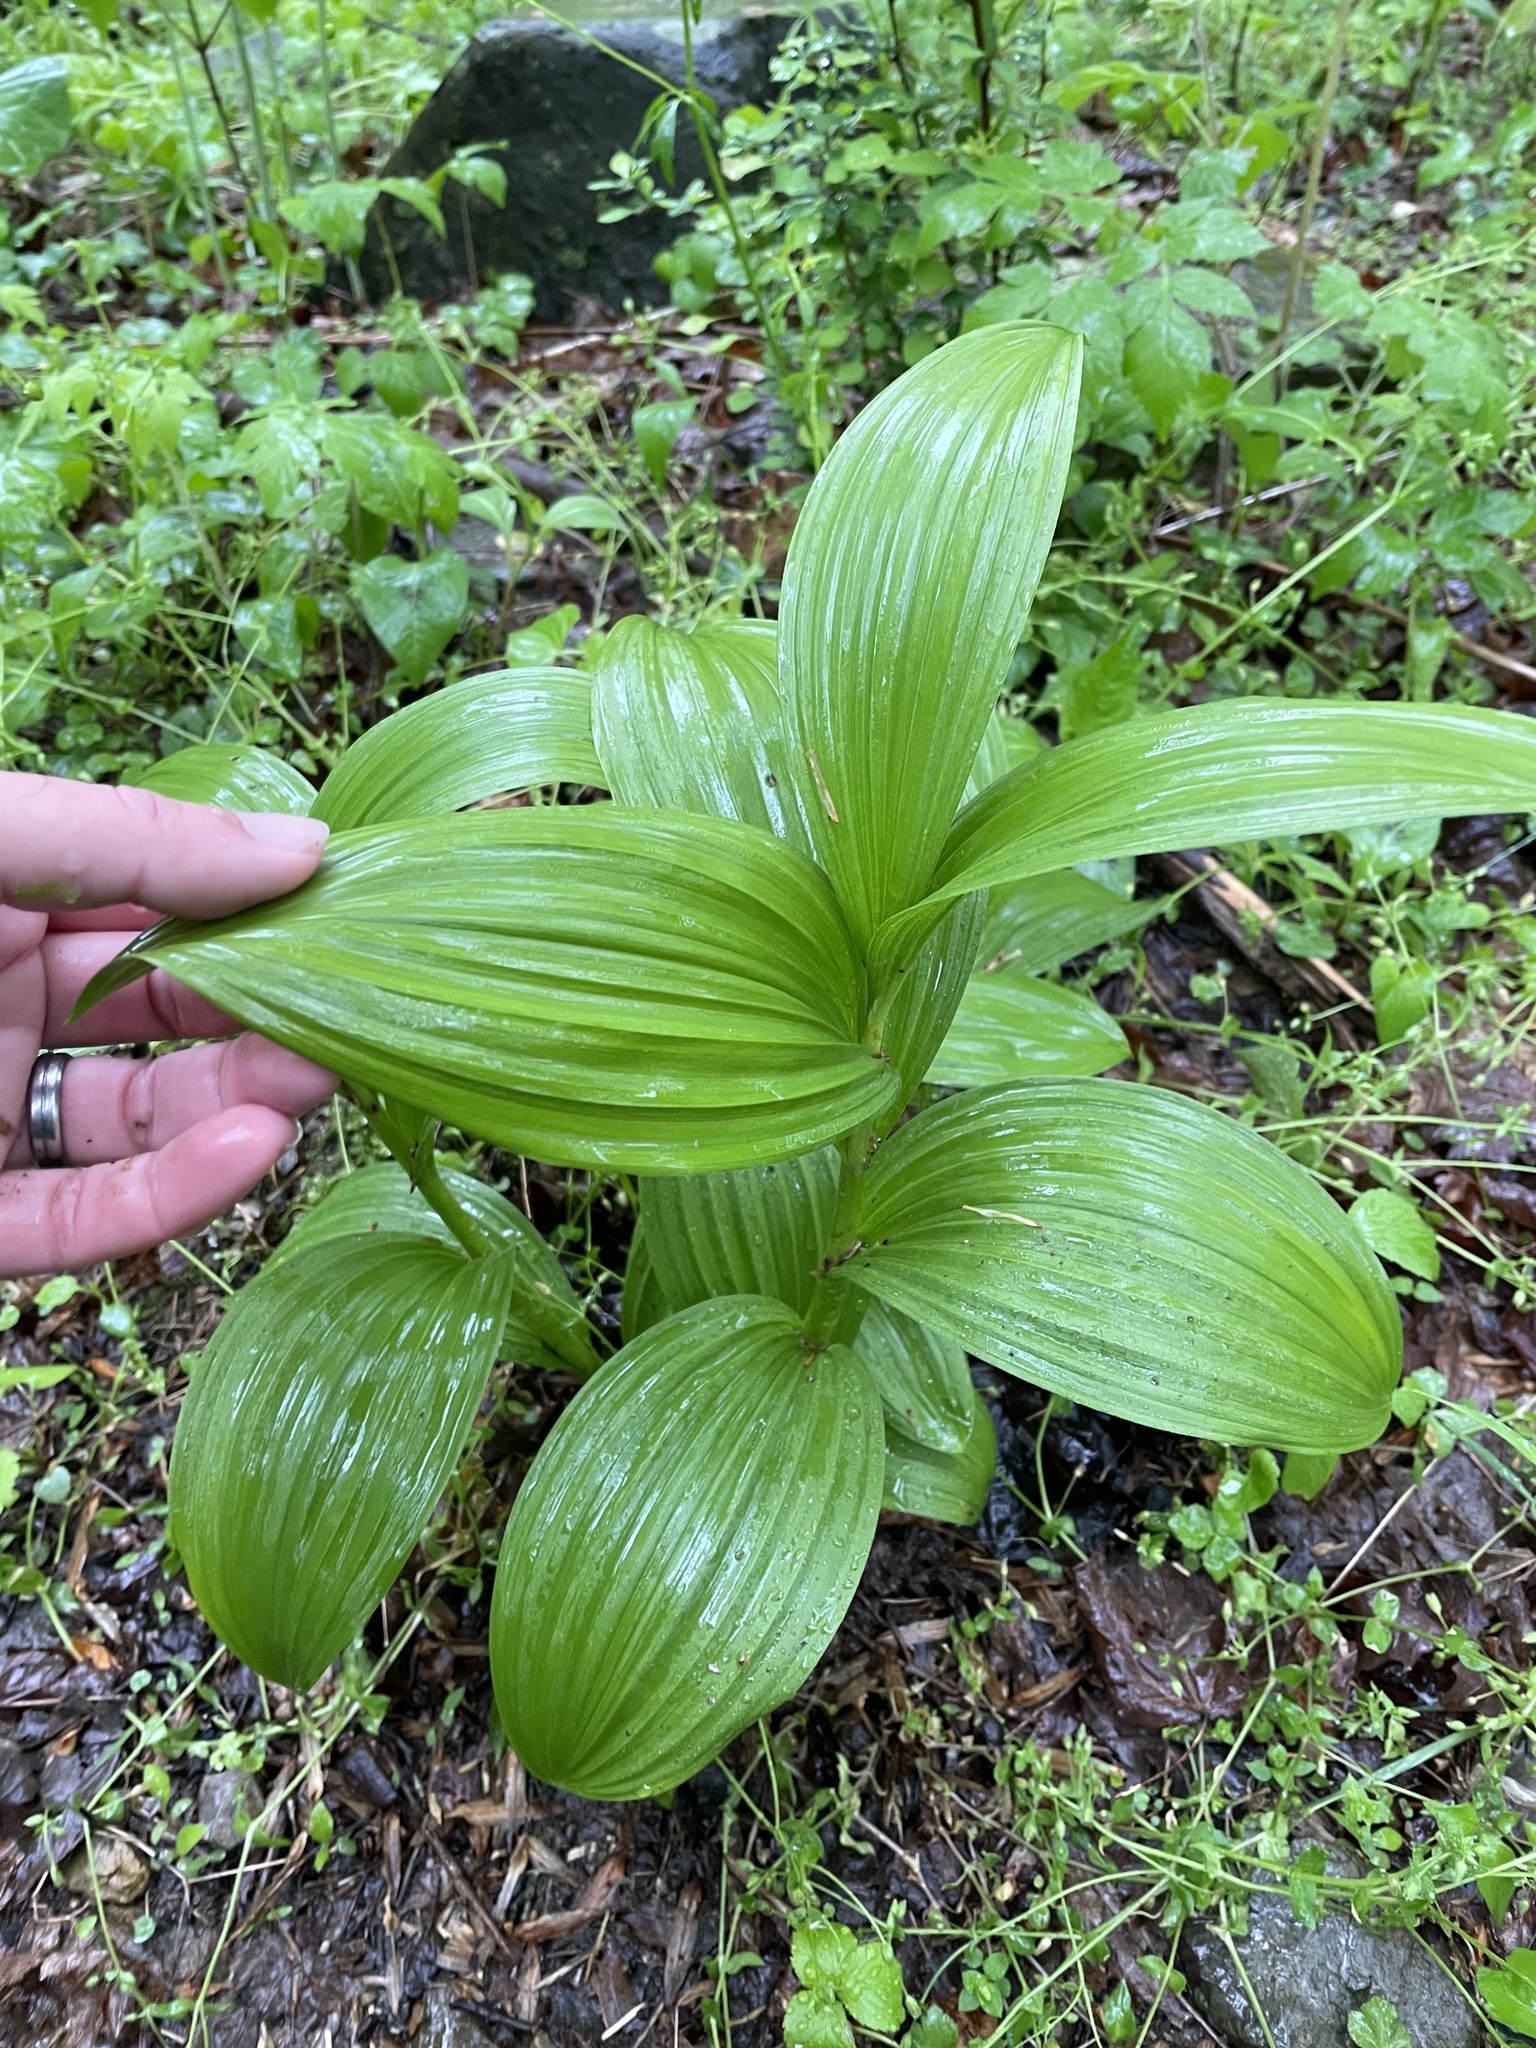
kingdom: Plantae
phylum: Tracheophyta
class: Liliopsida
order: Liliales
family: Melanthiaceae
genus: Veratrum
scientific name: Veratrum viride
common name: American false hellebore
